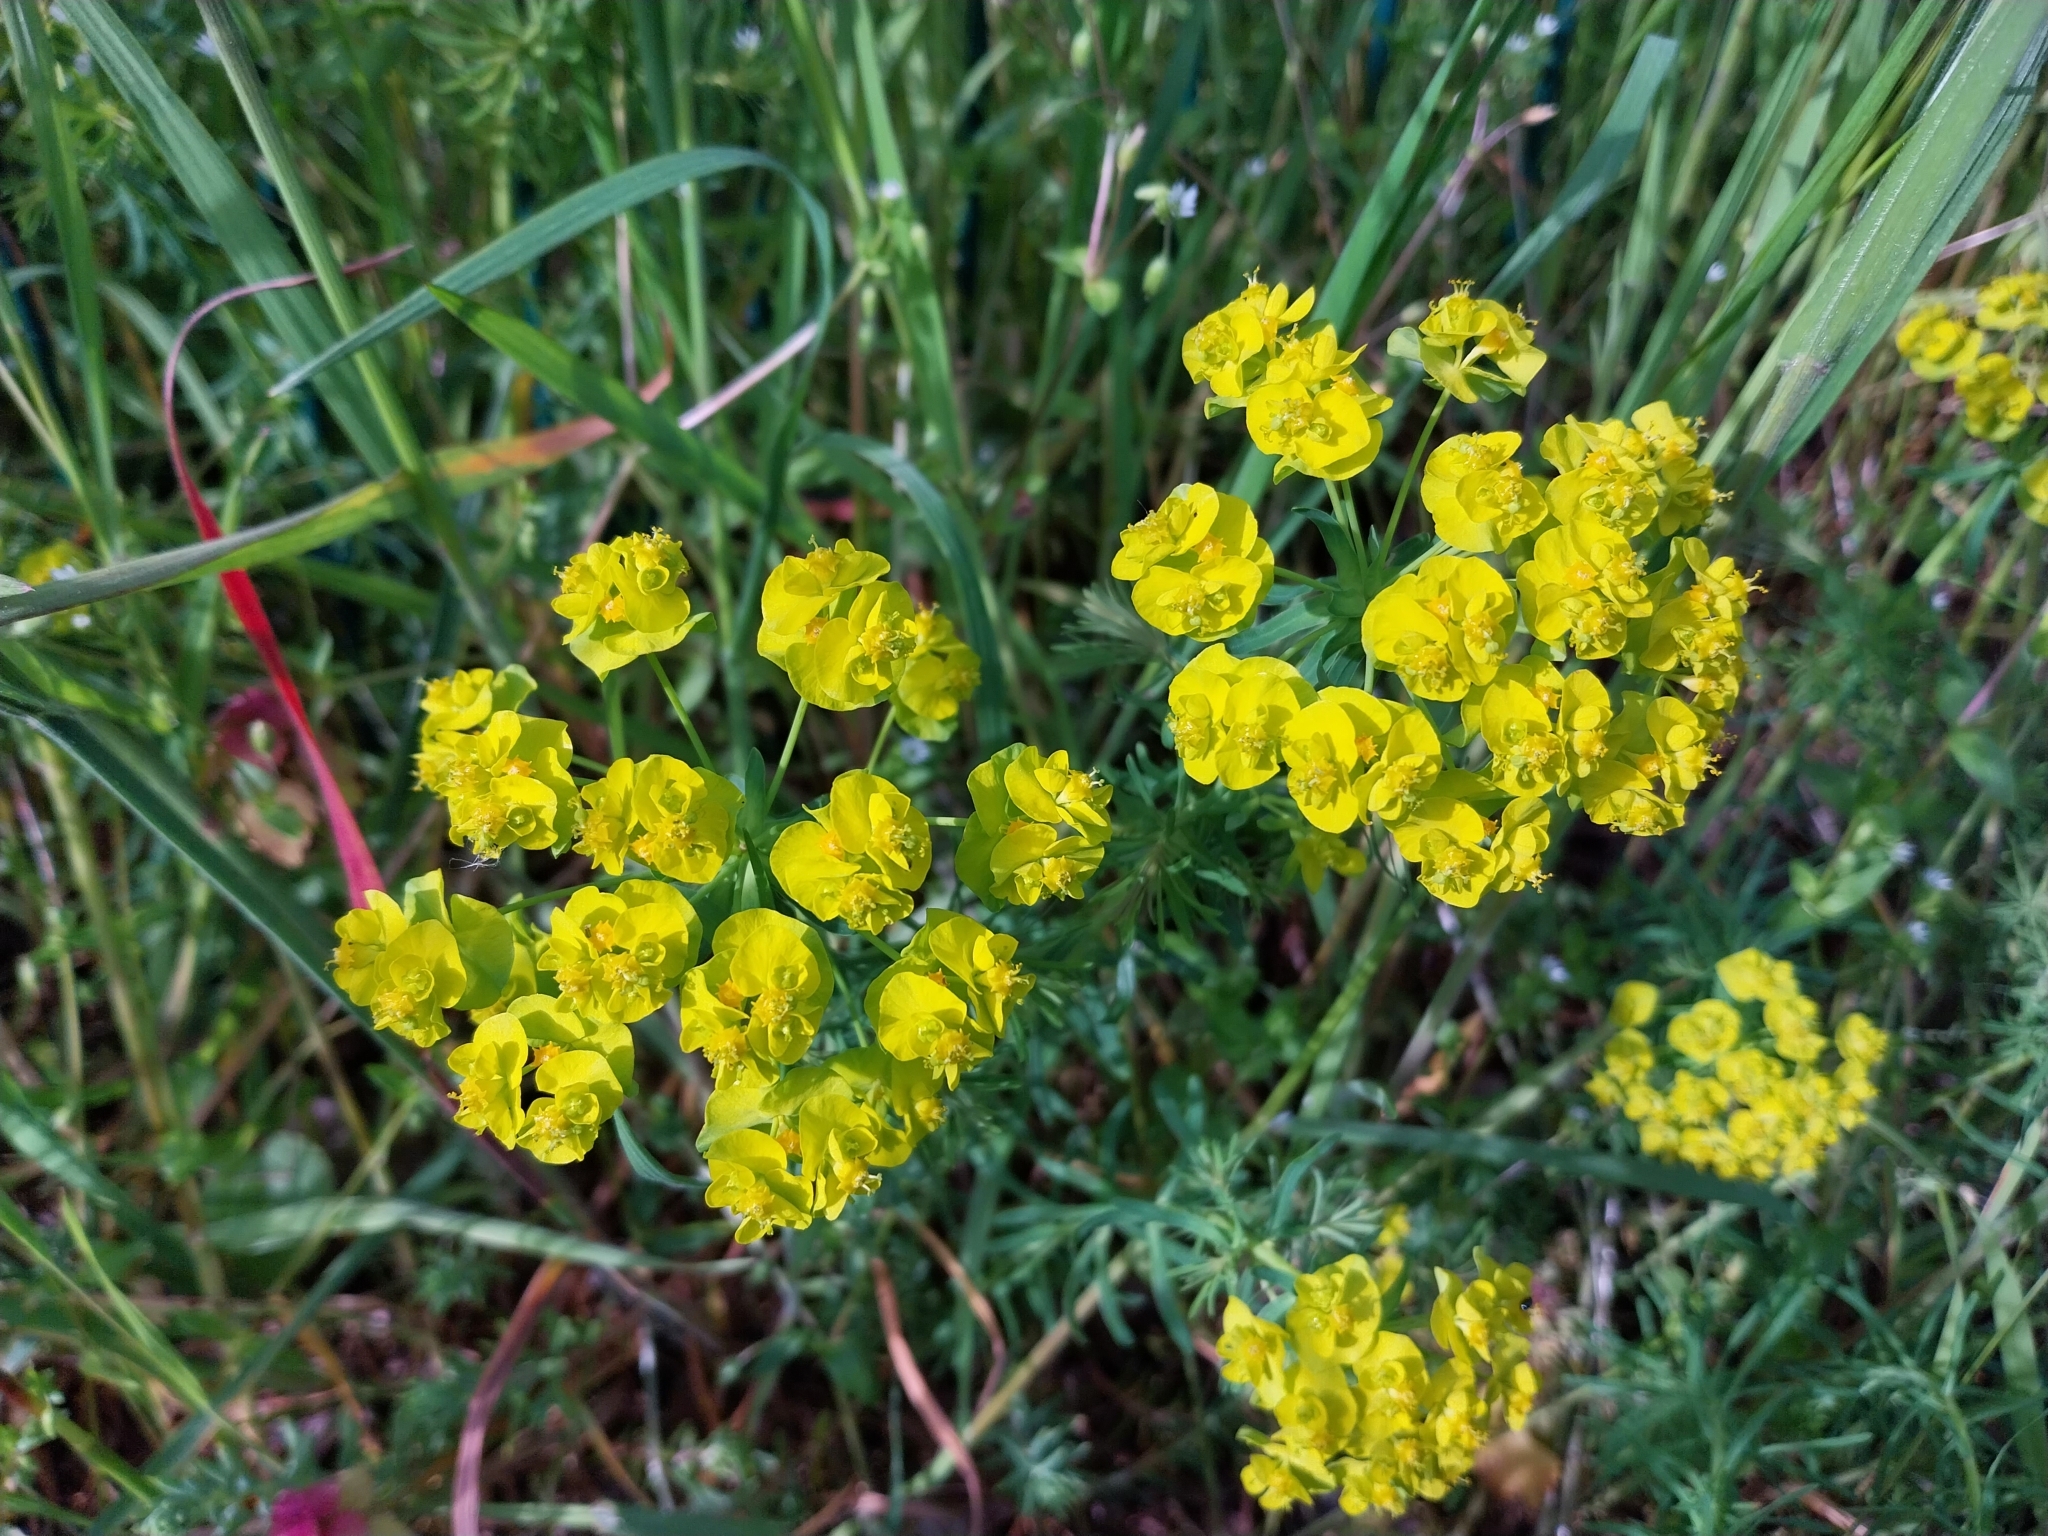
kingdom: Plantae
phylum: Tracheophyta
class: Magnoliopsida
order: Malpighiales
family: Euphorbiaceae
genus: Euphorbia
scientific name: Euphorbia cyparissias
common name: Cypress spurge
